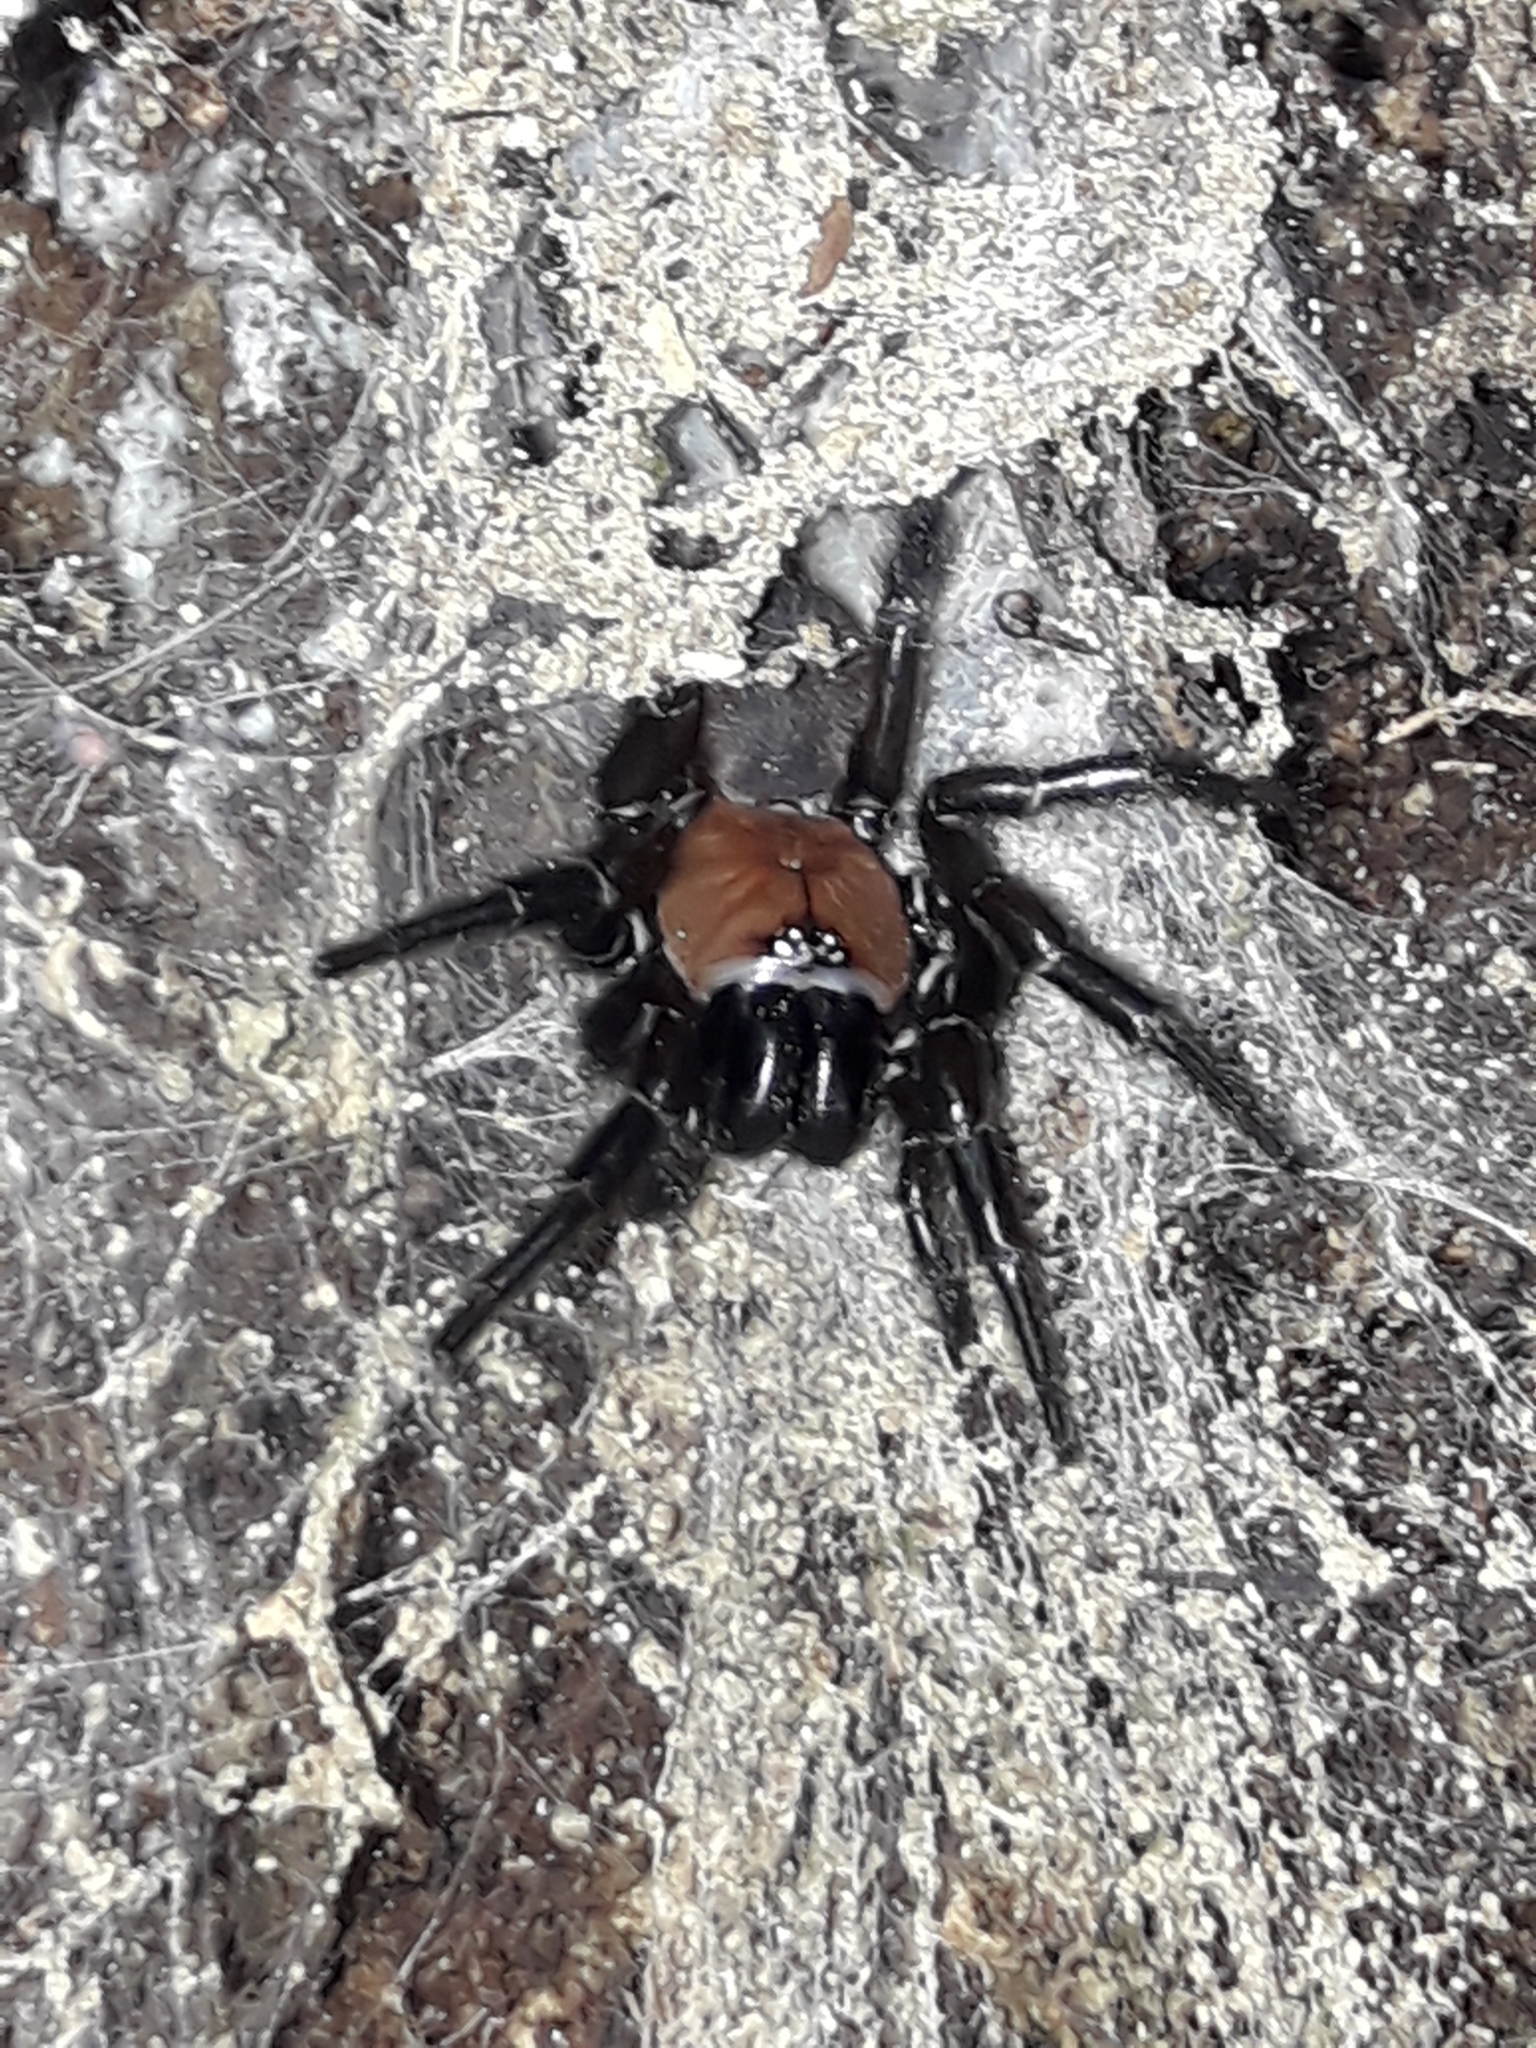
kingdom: Animalia
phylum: Arthropoda
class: Arachnida
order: Araneae
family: Porrhothelidae
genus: Porrhothele
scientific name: Porrhothele antipodiana
